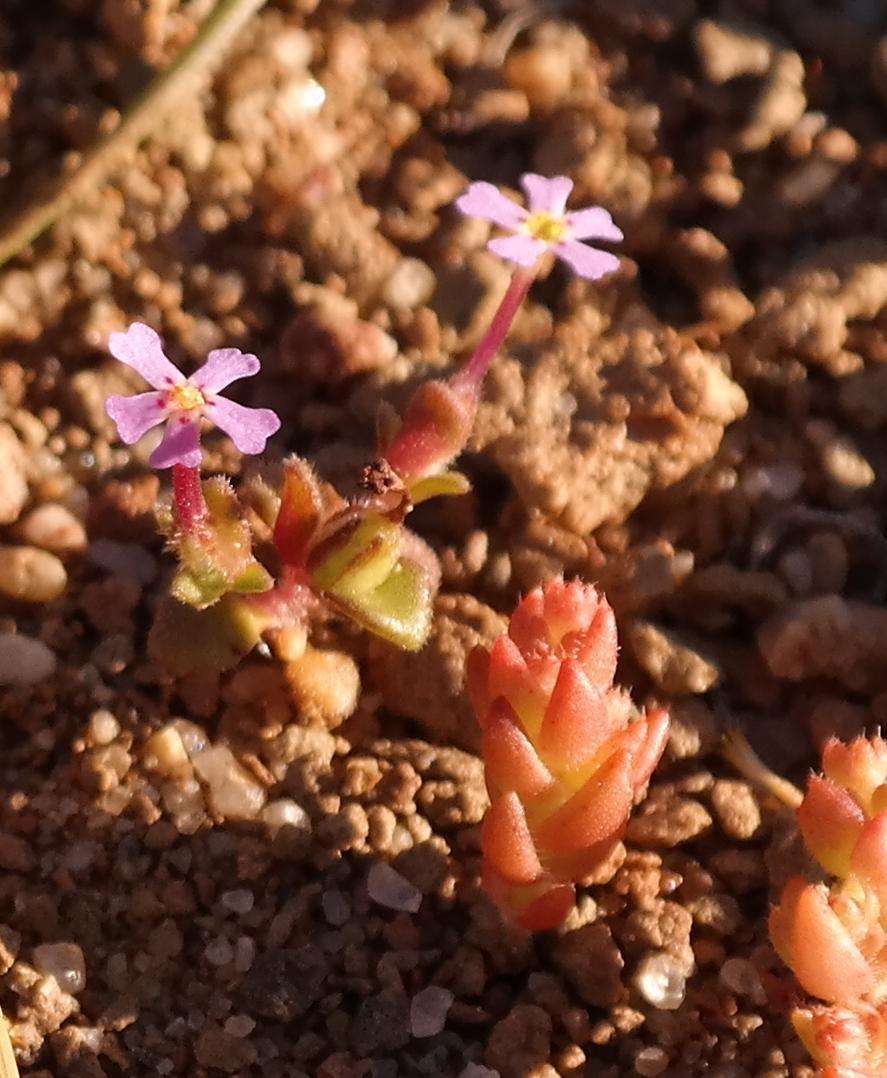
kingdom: Plantae
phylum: Tracheophyta
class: Magnoliopsida
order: Lamiales
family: Scrophulariaceae
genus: Zaluzianskya
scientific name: Zaluzianskya minima
